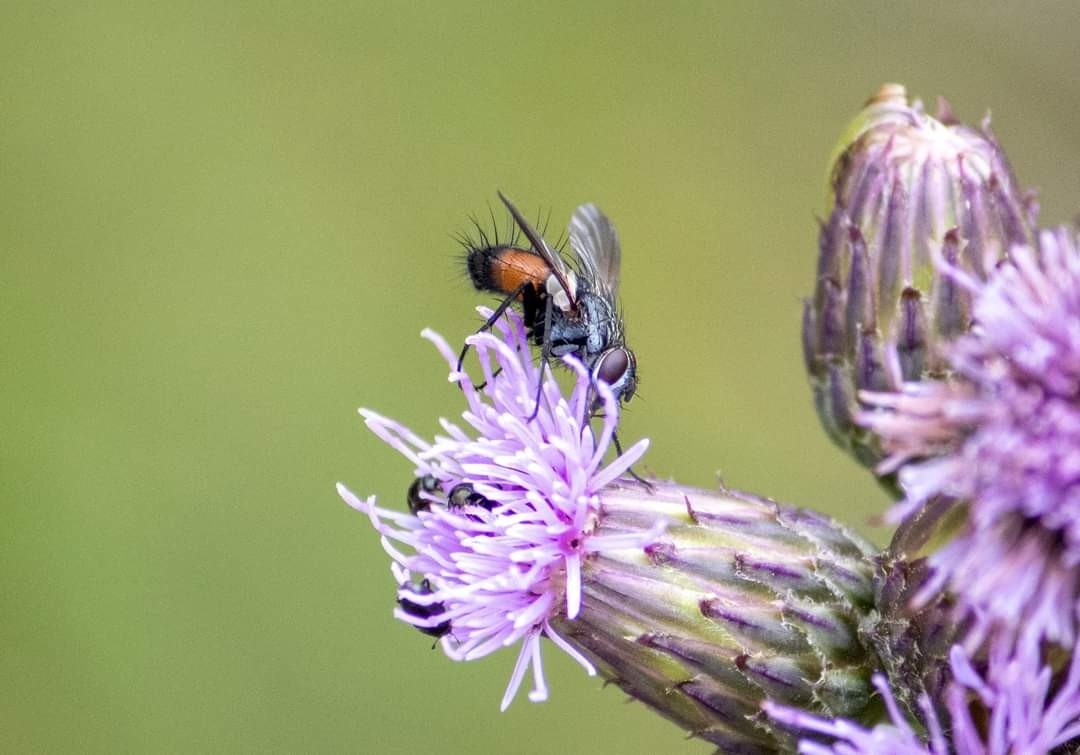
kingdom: Animalia
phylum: Arthropoda
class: Insecta
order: Diptera
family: Tachinidae
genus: Eriothrix
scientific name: Eriothrix rufomaculatus
